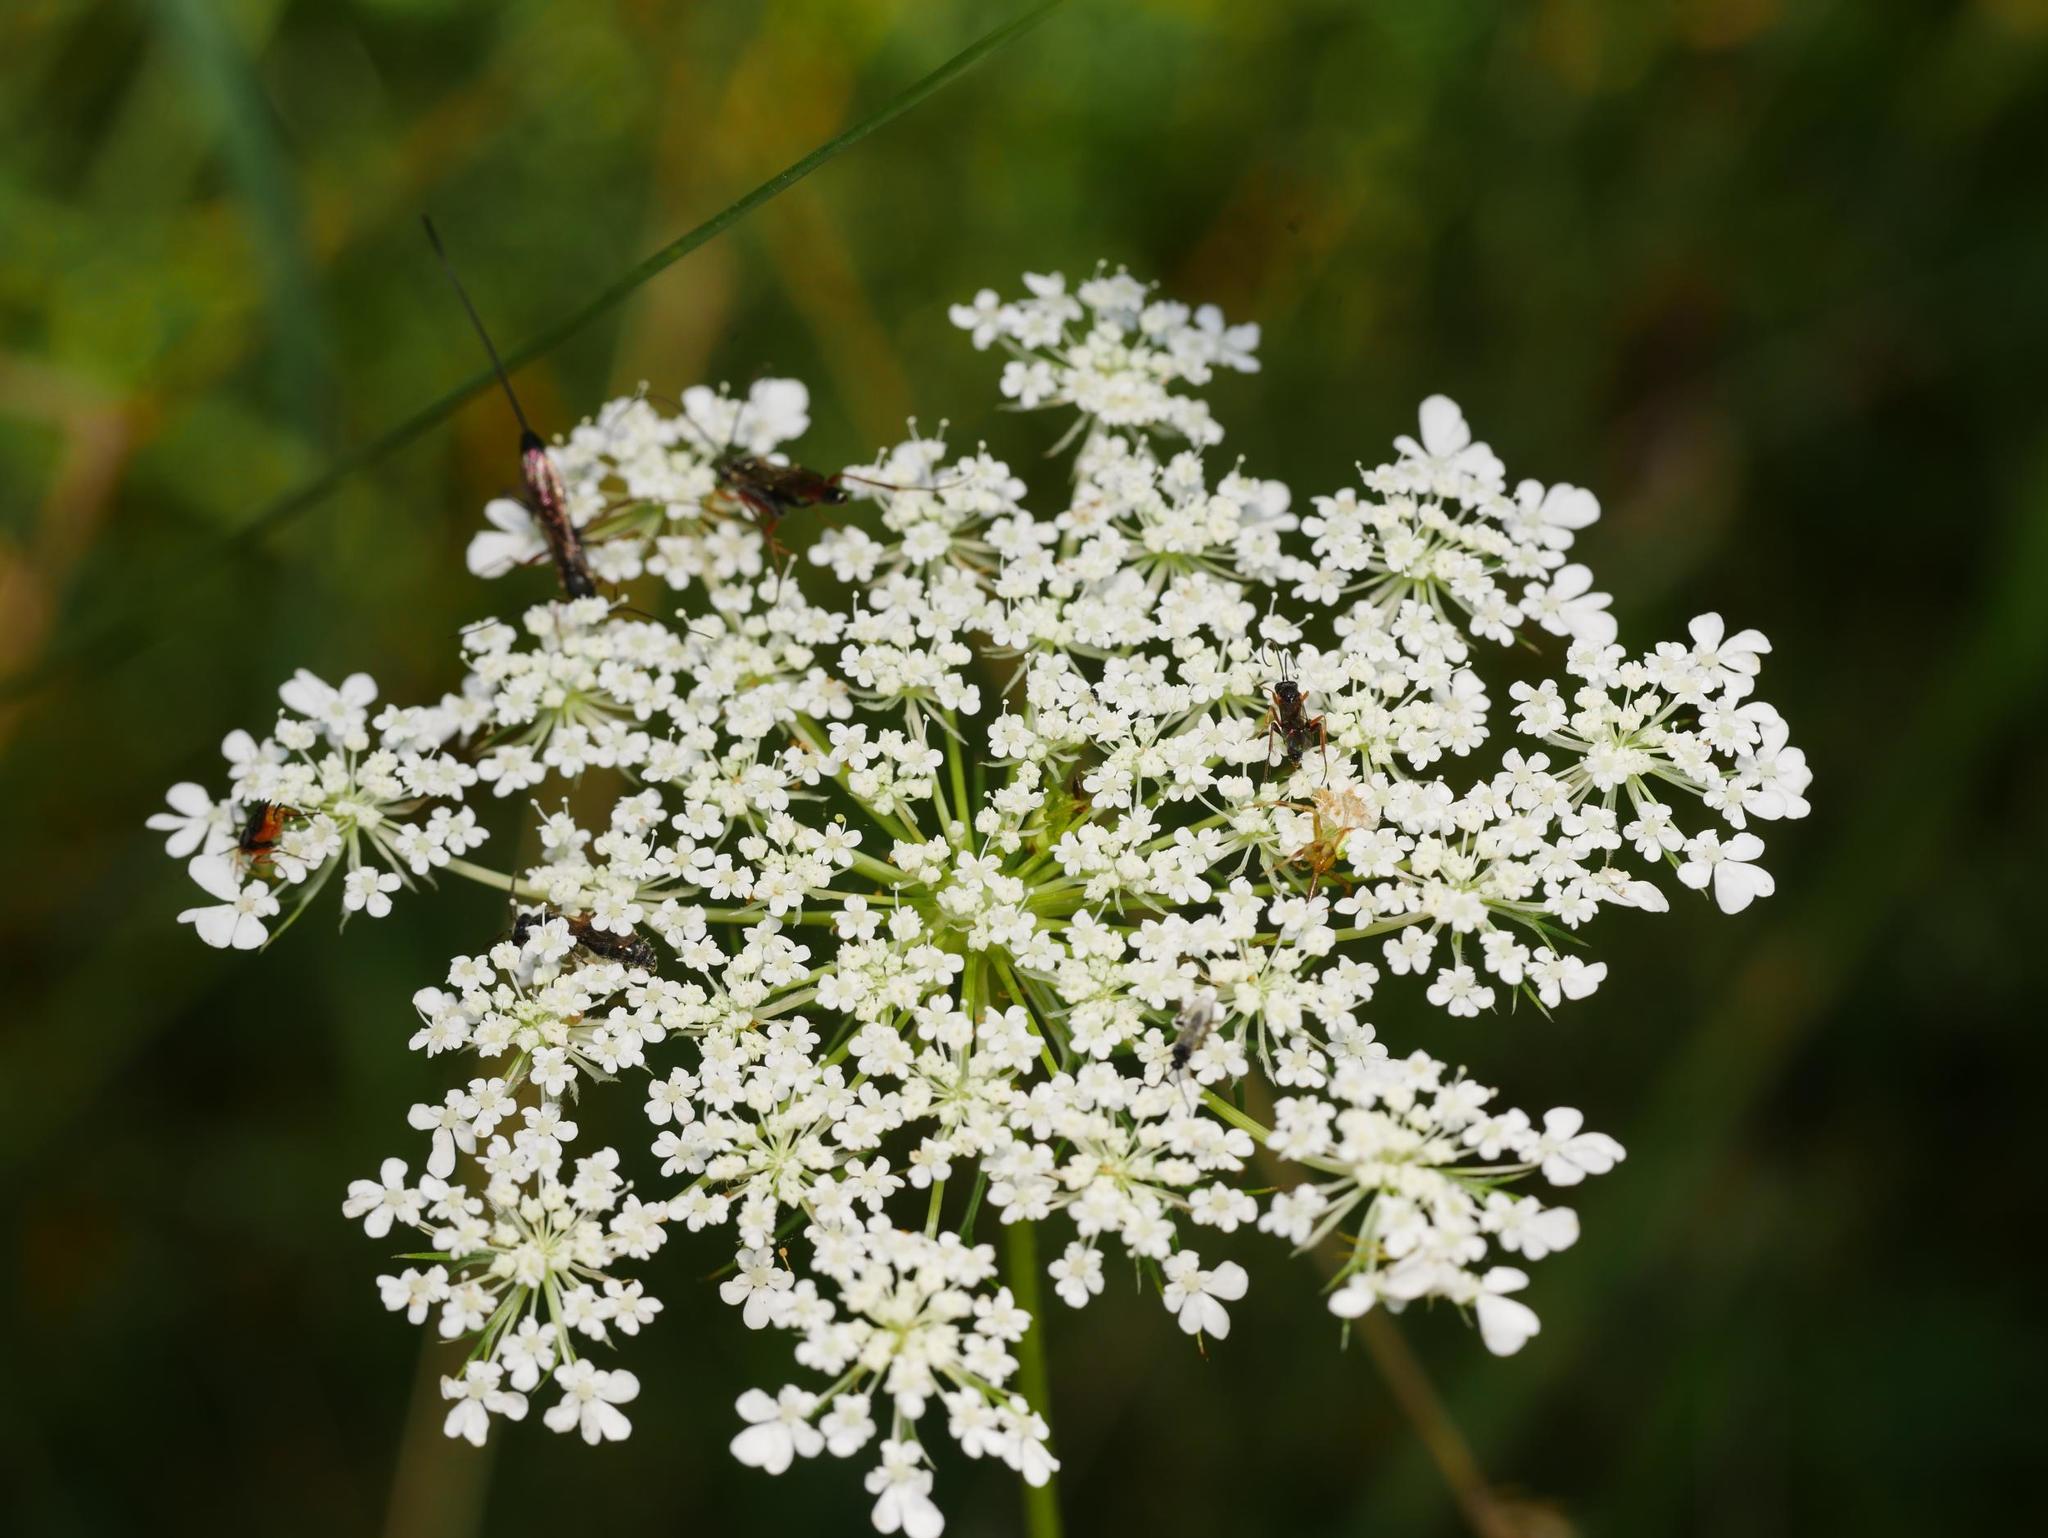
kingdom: Plantae
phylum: Tracheophyta
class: Magnoliopsida
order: Apiales
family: Apiaceae
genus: Daucus
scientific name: Daucus carota
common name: Wild carrot
